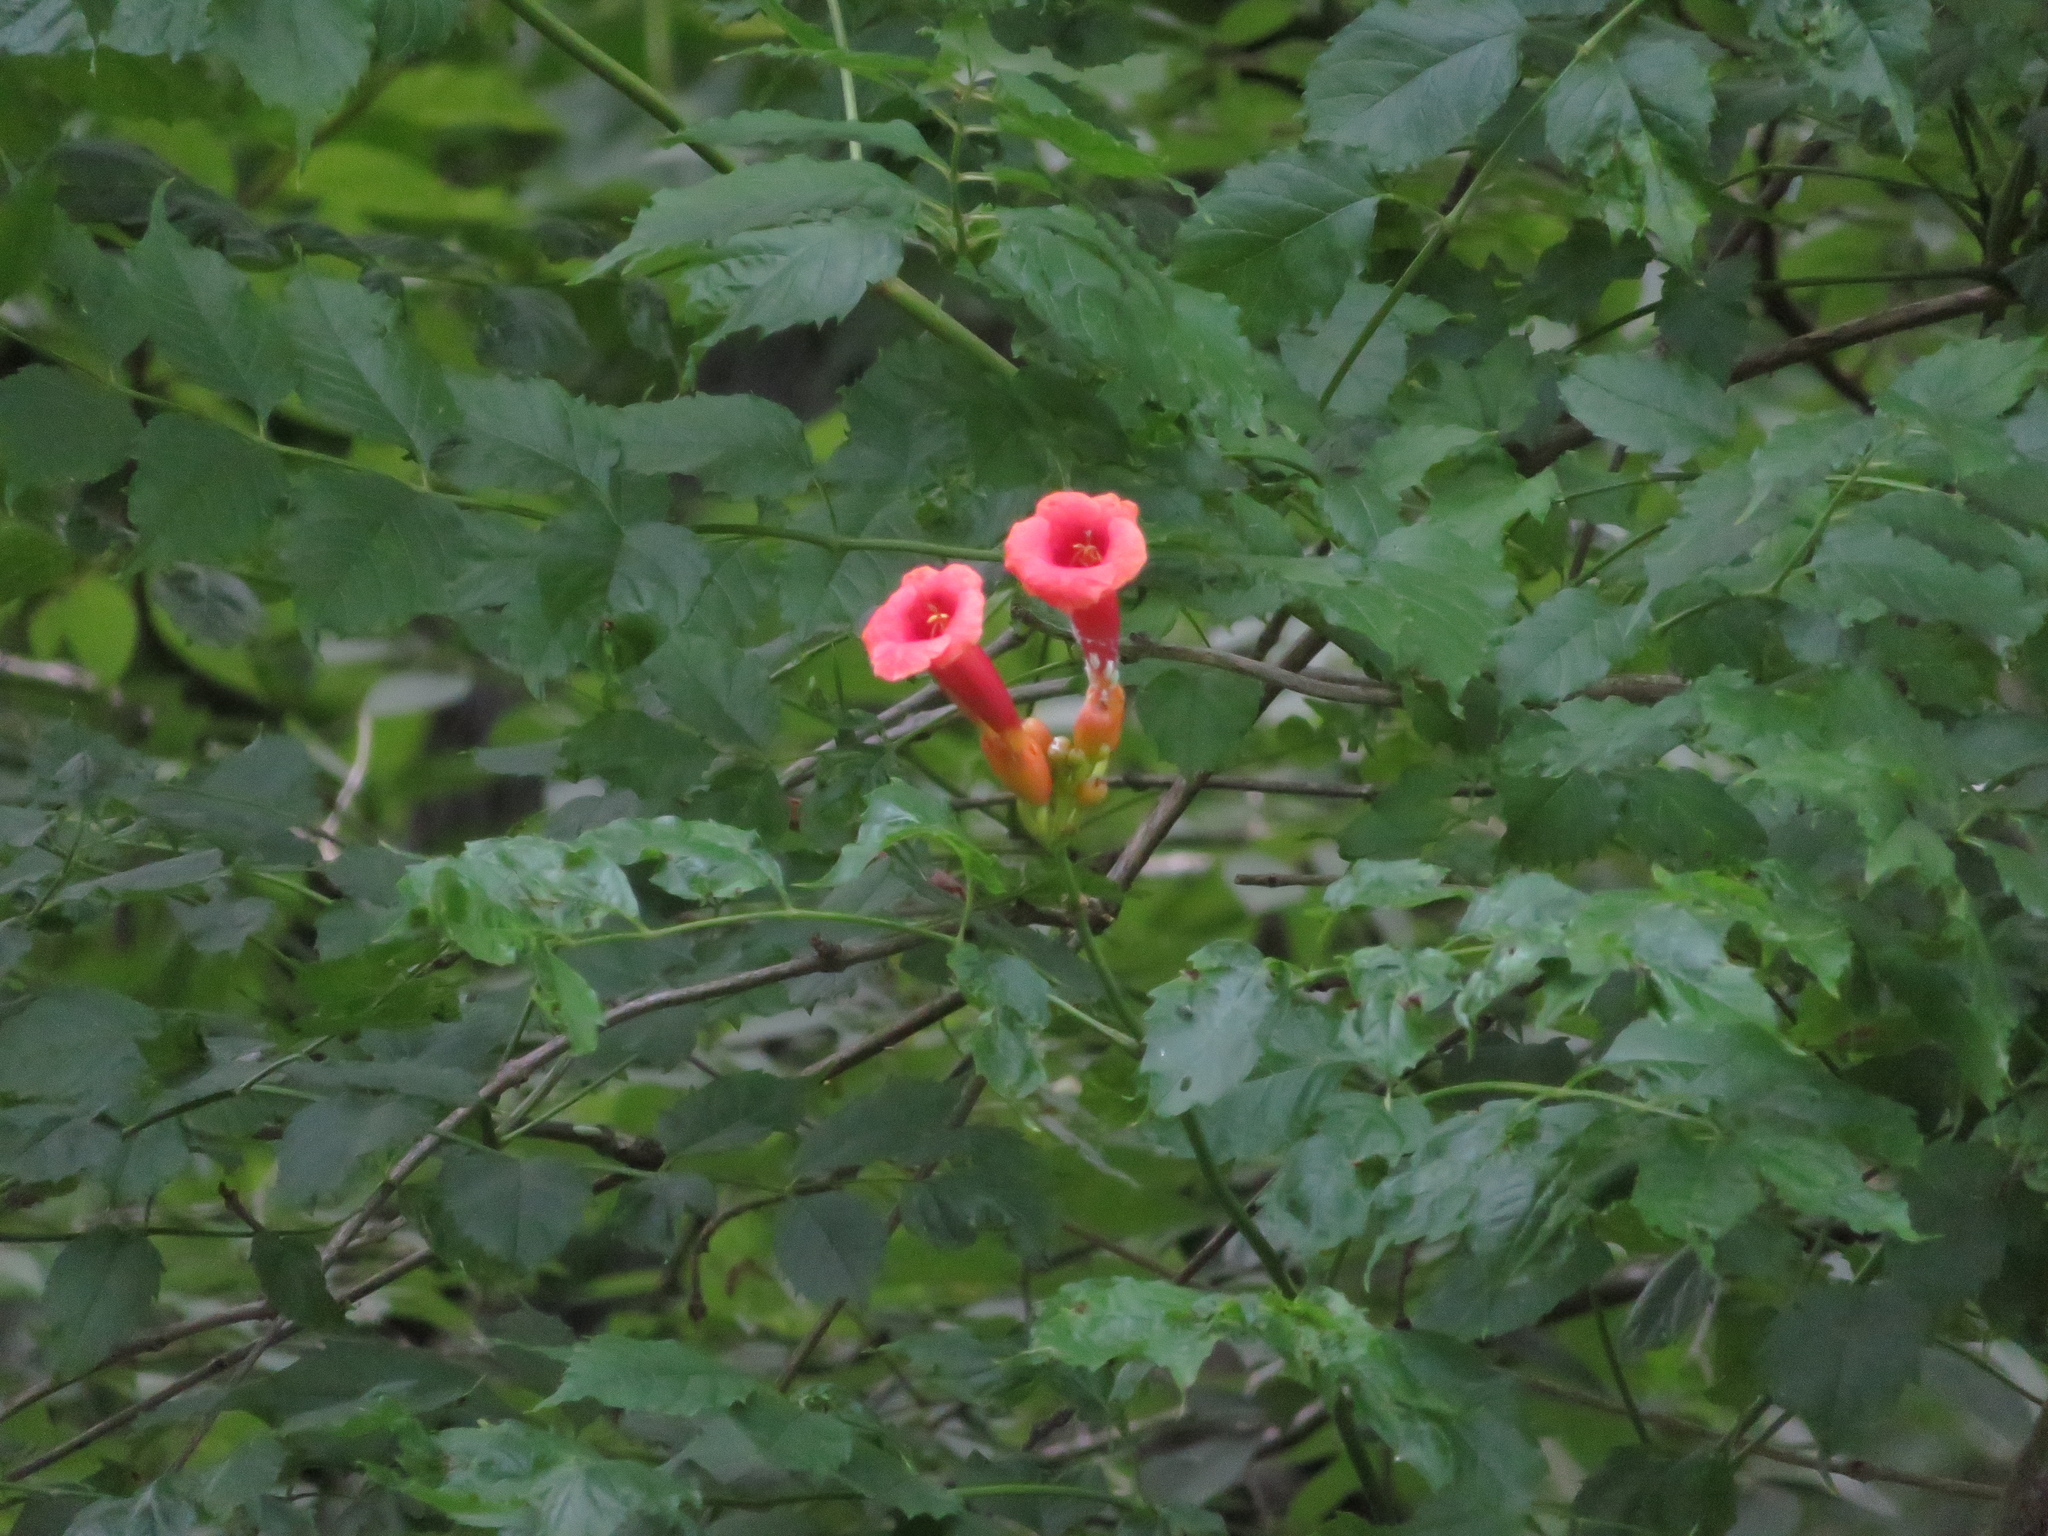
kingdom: Plantae
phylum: Tracheophyta
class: Magnoliopsida
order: Lamiales
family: Bignoniaceae
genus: Campsis
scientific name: Campsis radicans
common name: Trumpet-creeper
